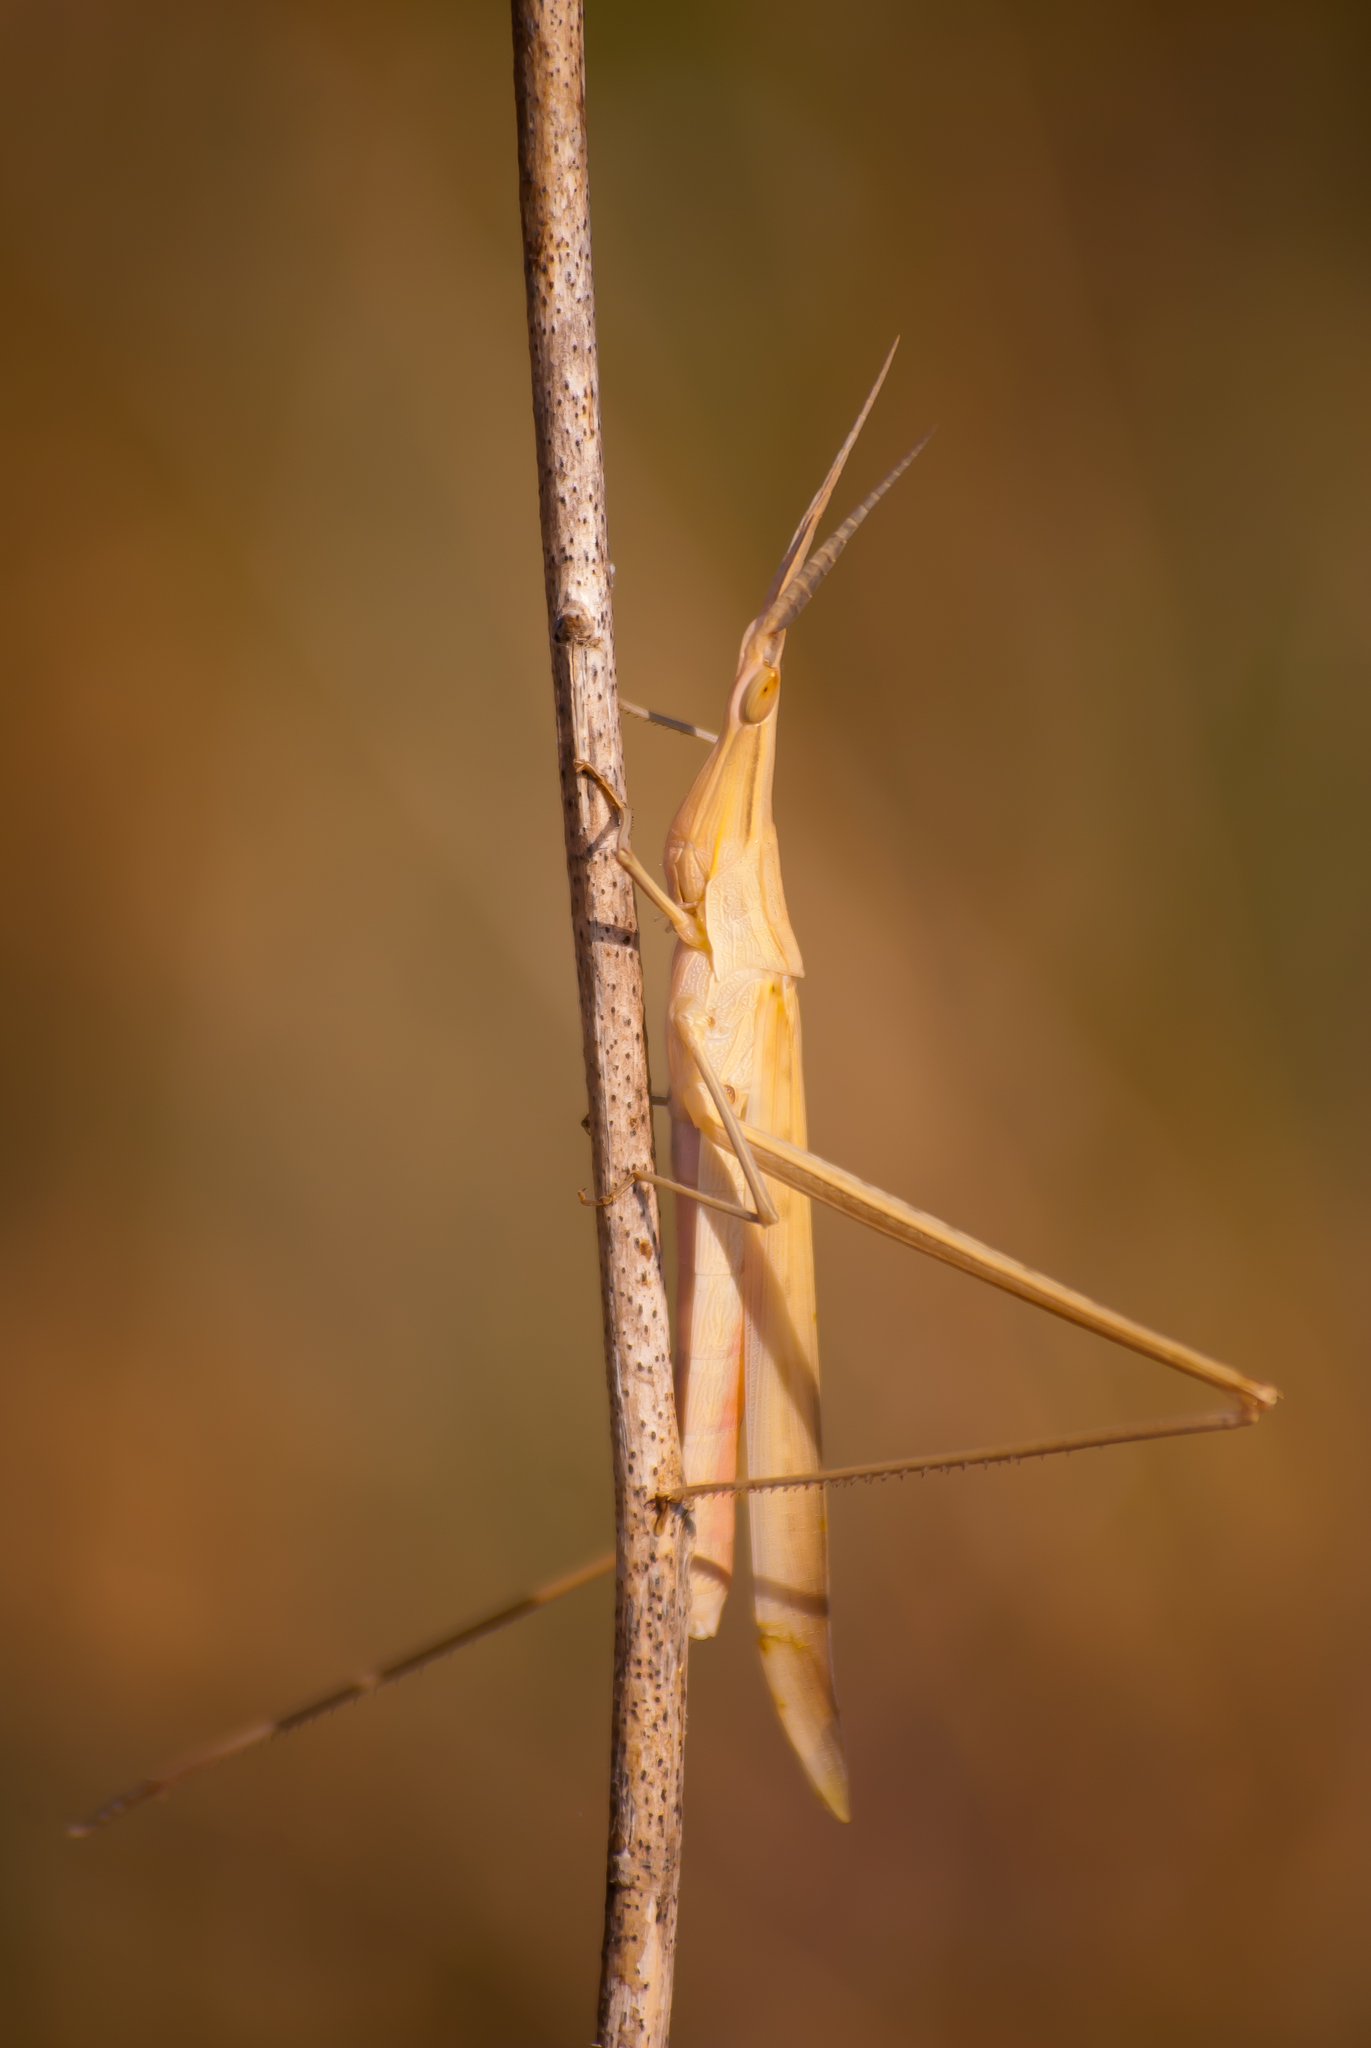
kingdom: Animalia
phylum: Arthropoda
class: Insecta
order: Orthoptera
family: Acrididae
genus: Acrida
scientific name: Acrida ungarica
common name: Common cone-headed grasshopper
